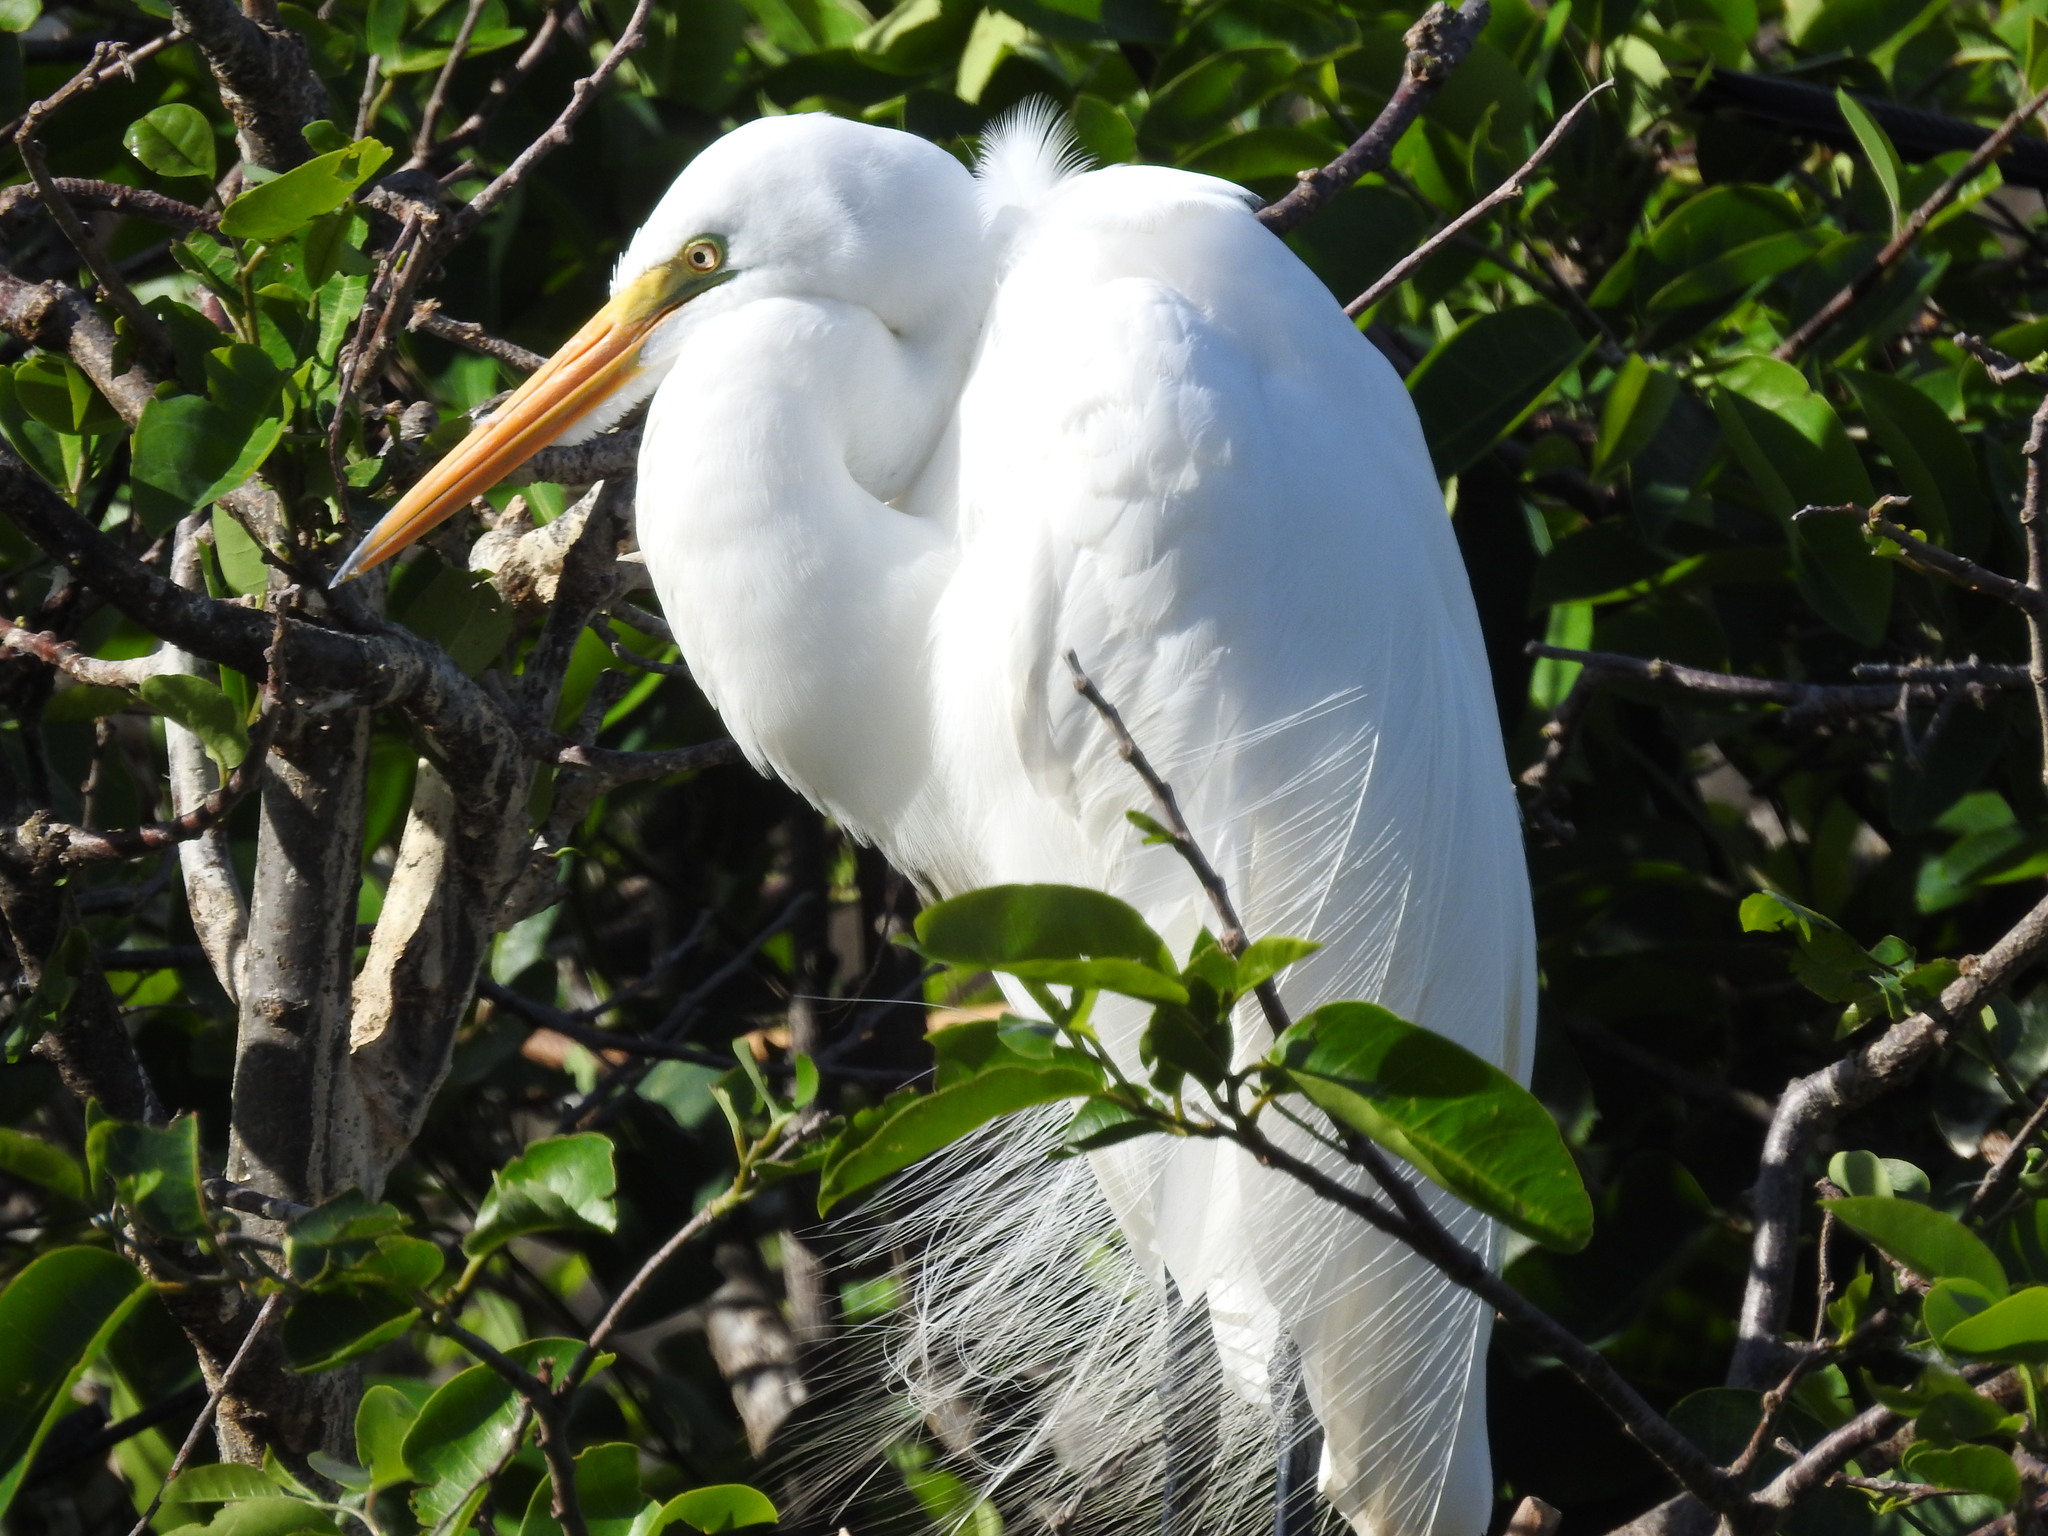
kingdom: Animalia
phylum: Chordata
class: Aves
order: Pelecaniformes
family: Ardeidae
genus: Ardea
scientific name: Ardea alba
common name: Great egret
